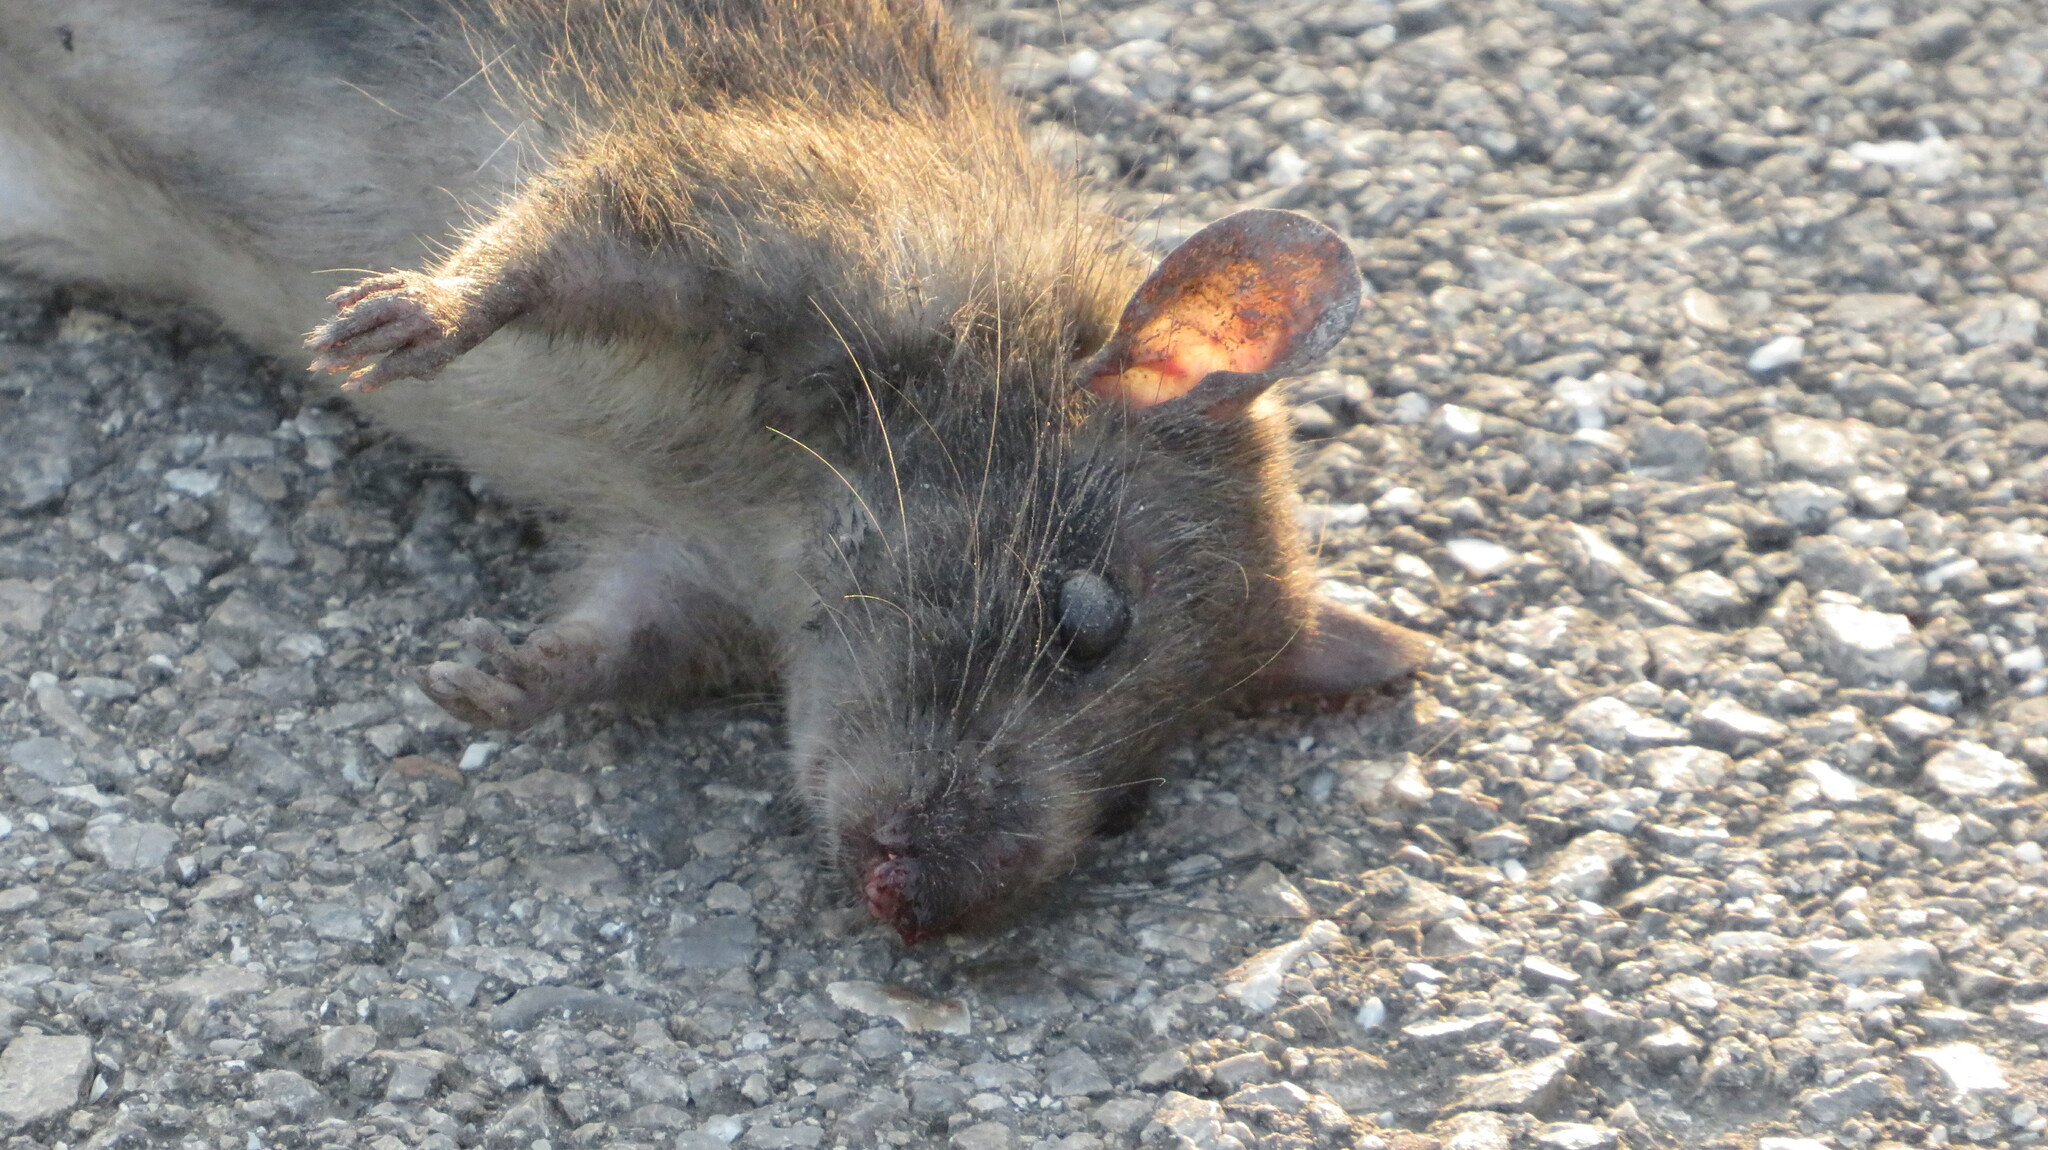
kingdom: Animalia
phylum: Chordata
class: Mammalia
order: Rodentia
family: Muridae
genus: Rattus
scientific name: Rattus norvegicus
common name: Brown rat
